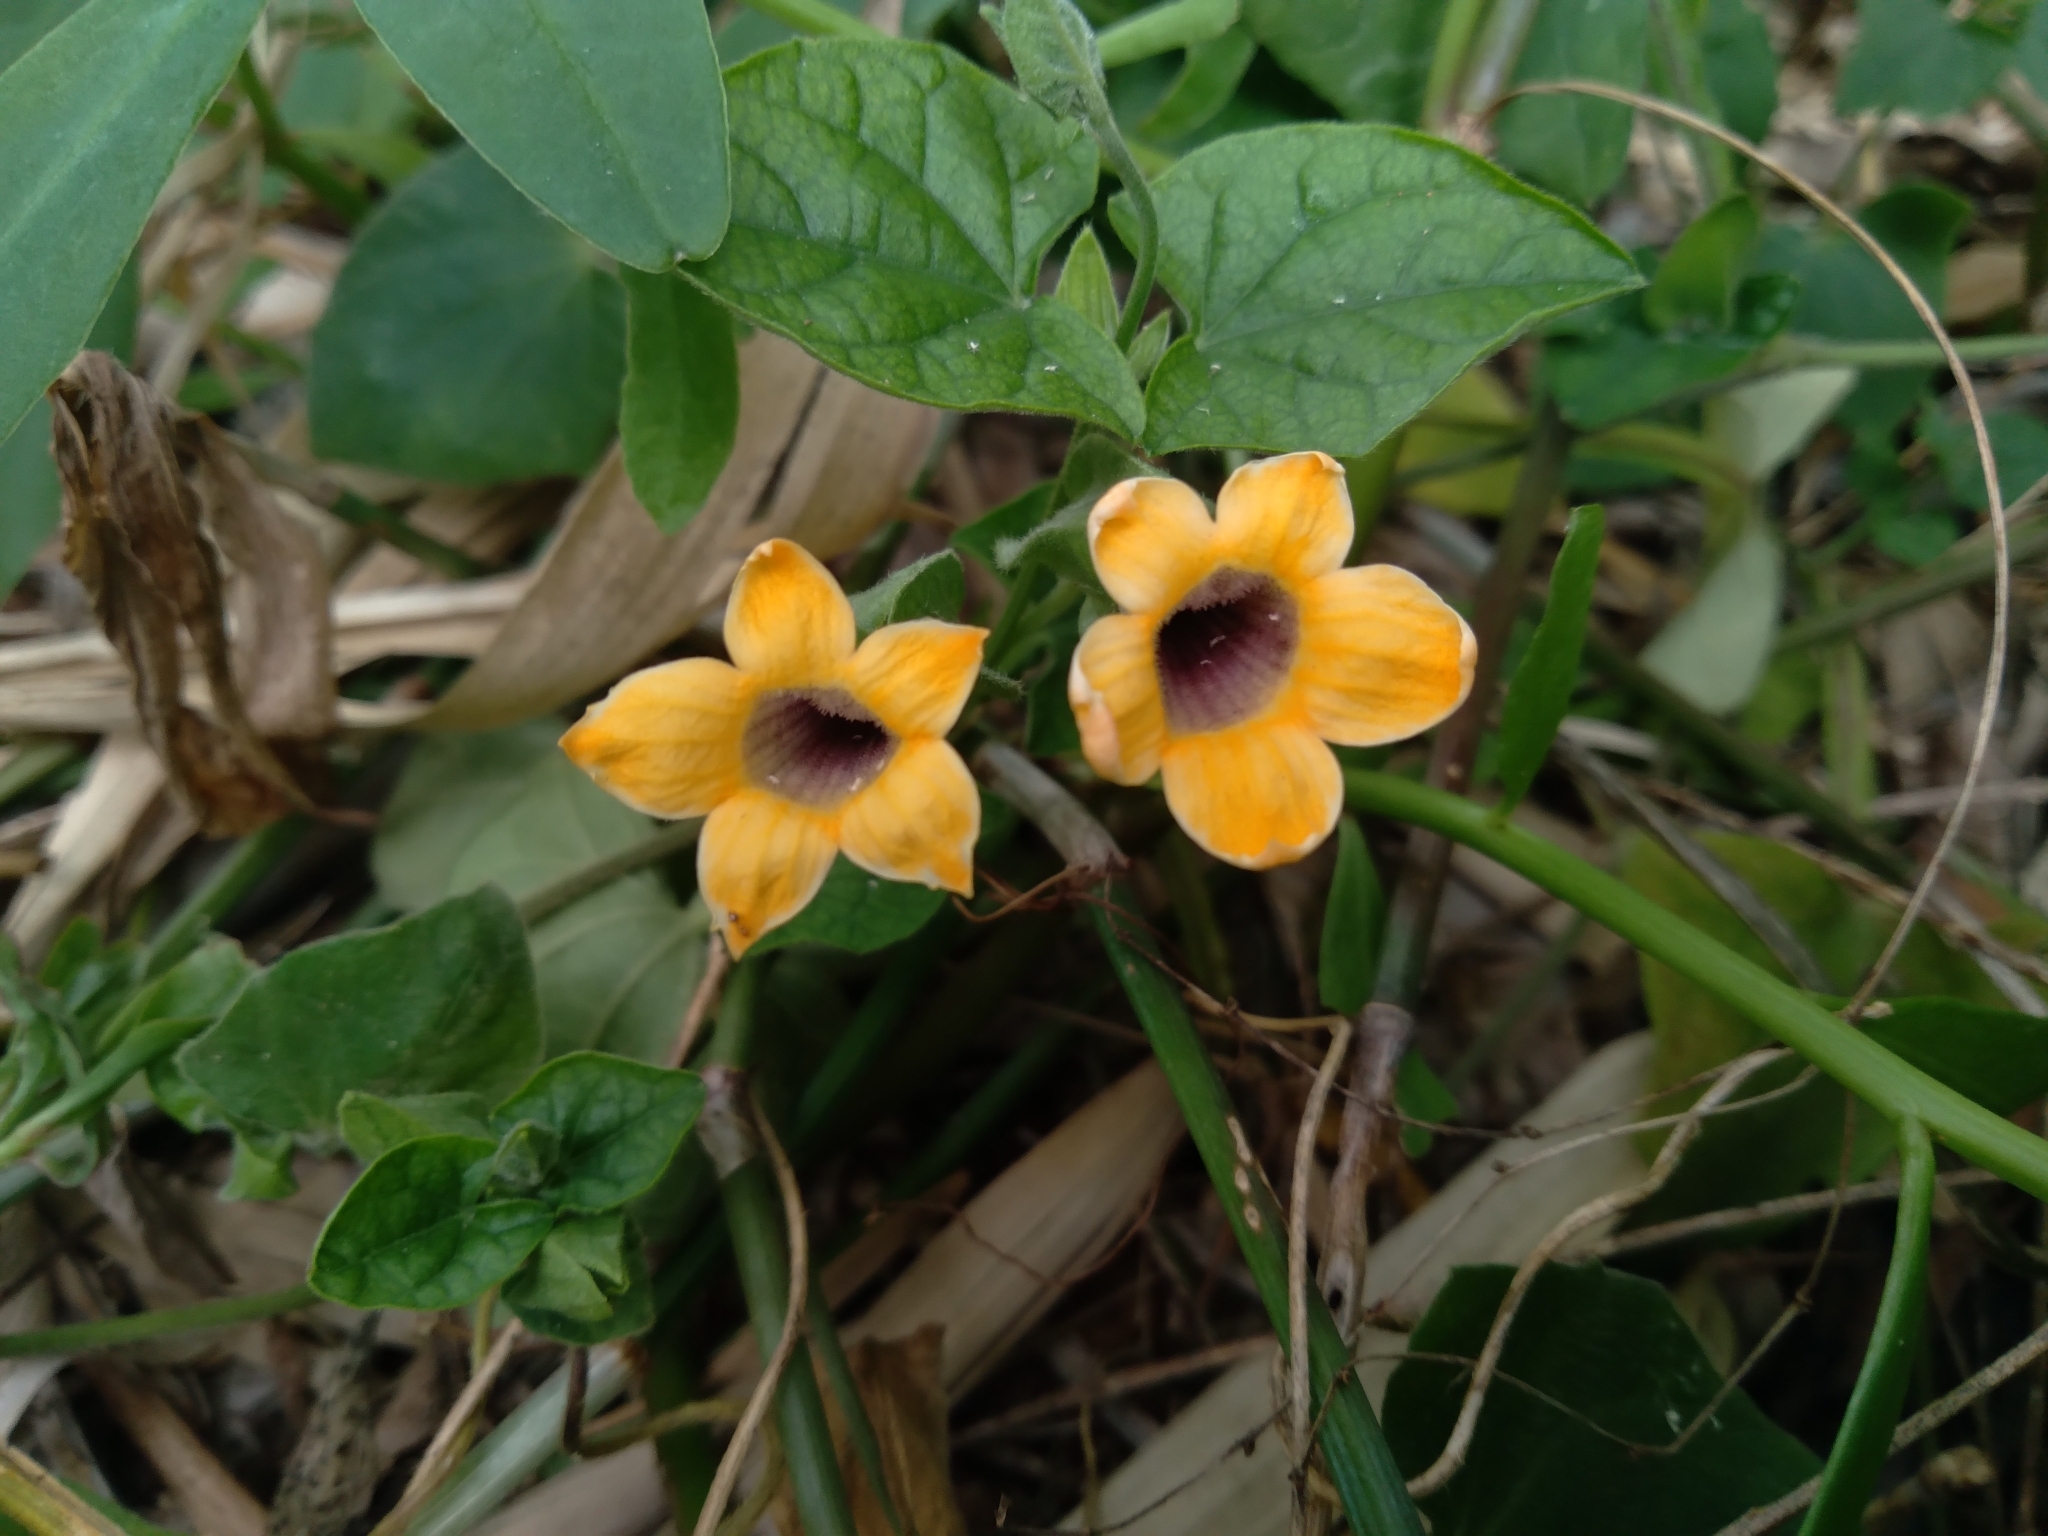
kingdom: Plantae
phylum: Tracheophyta
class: Magnoliopsida
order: Lamiales
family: Acanthaceae
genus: Thunbergia
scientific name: Thunbergia alata
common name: Blackeyed susan vine
